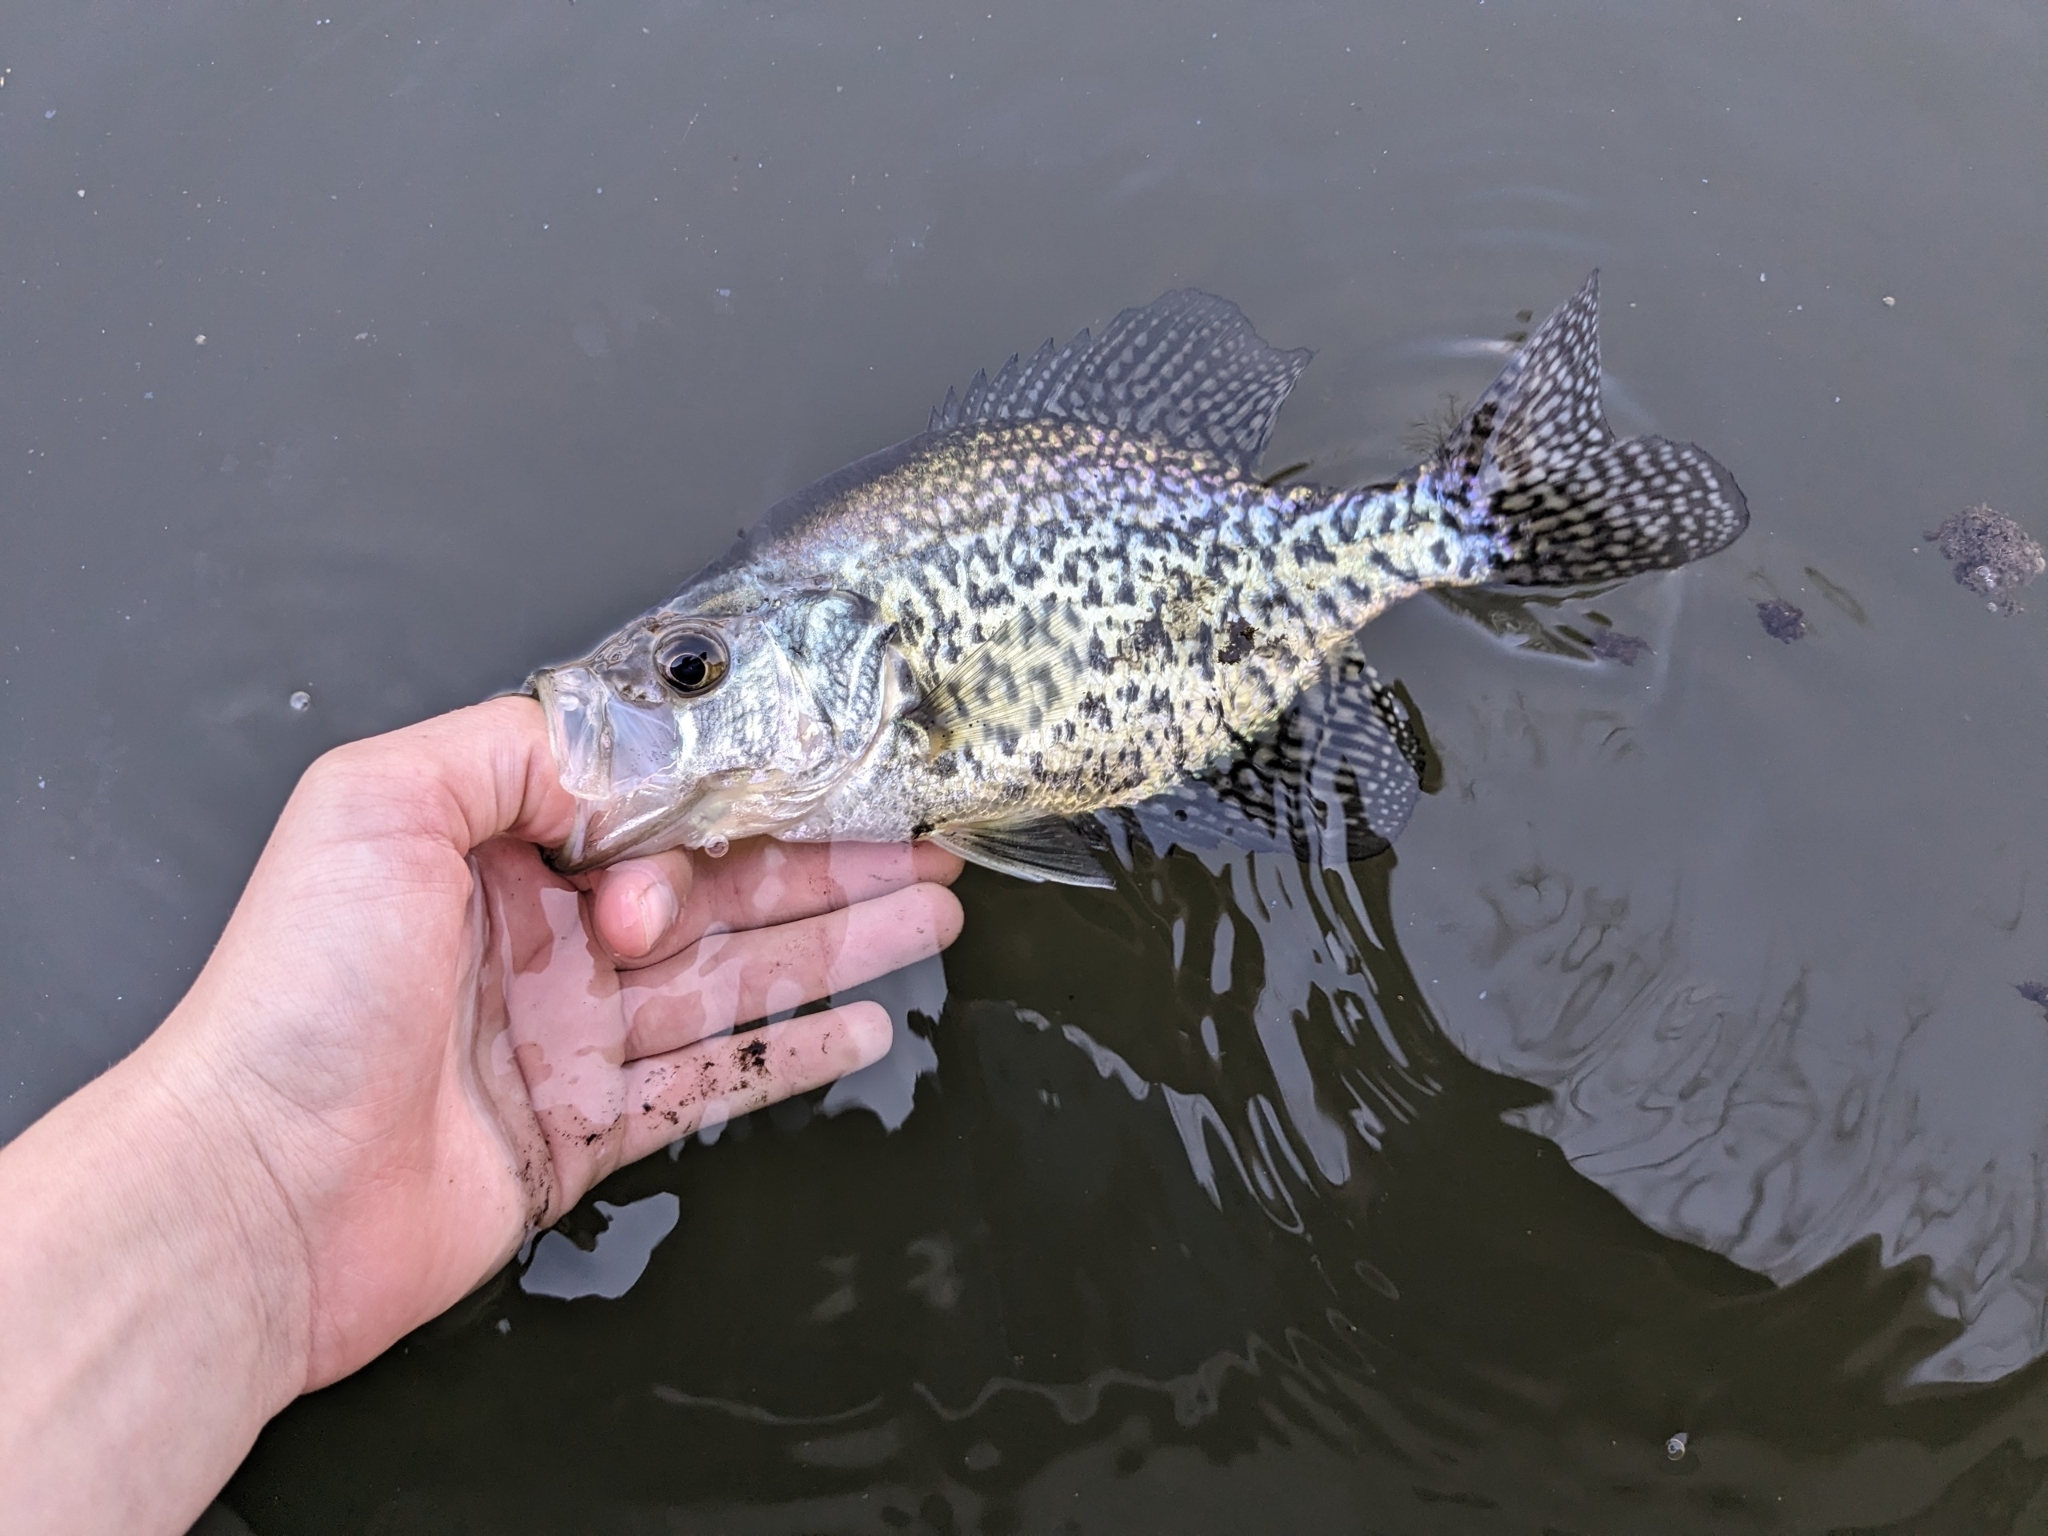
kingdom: Animalia
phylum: Chordata
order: Perciformes
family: Centrarchidae
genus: Pomoxis
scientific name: Pomoxis nigromaculatus
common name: Black crappie
